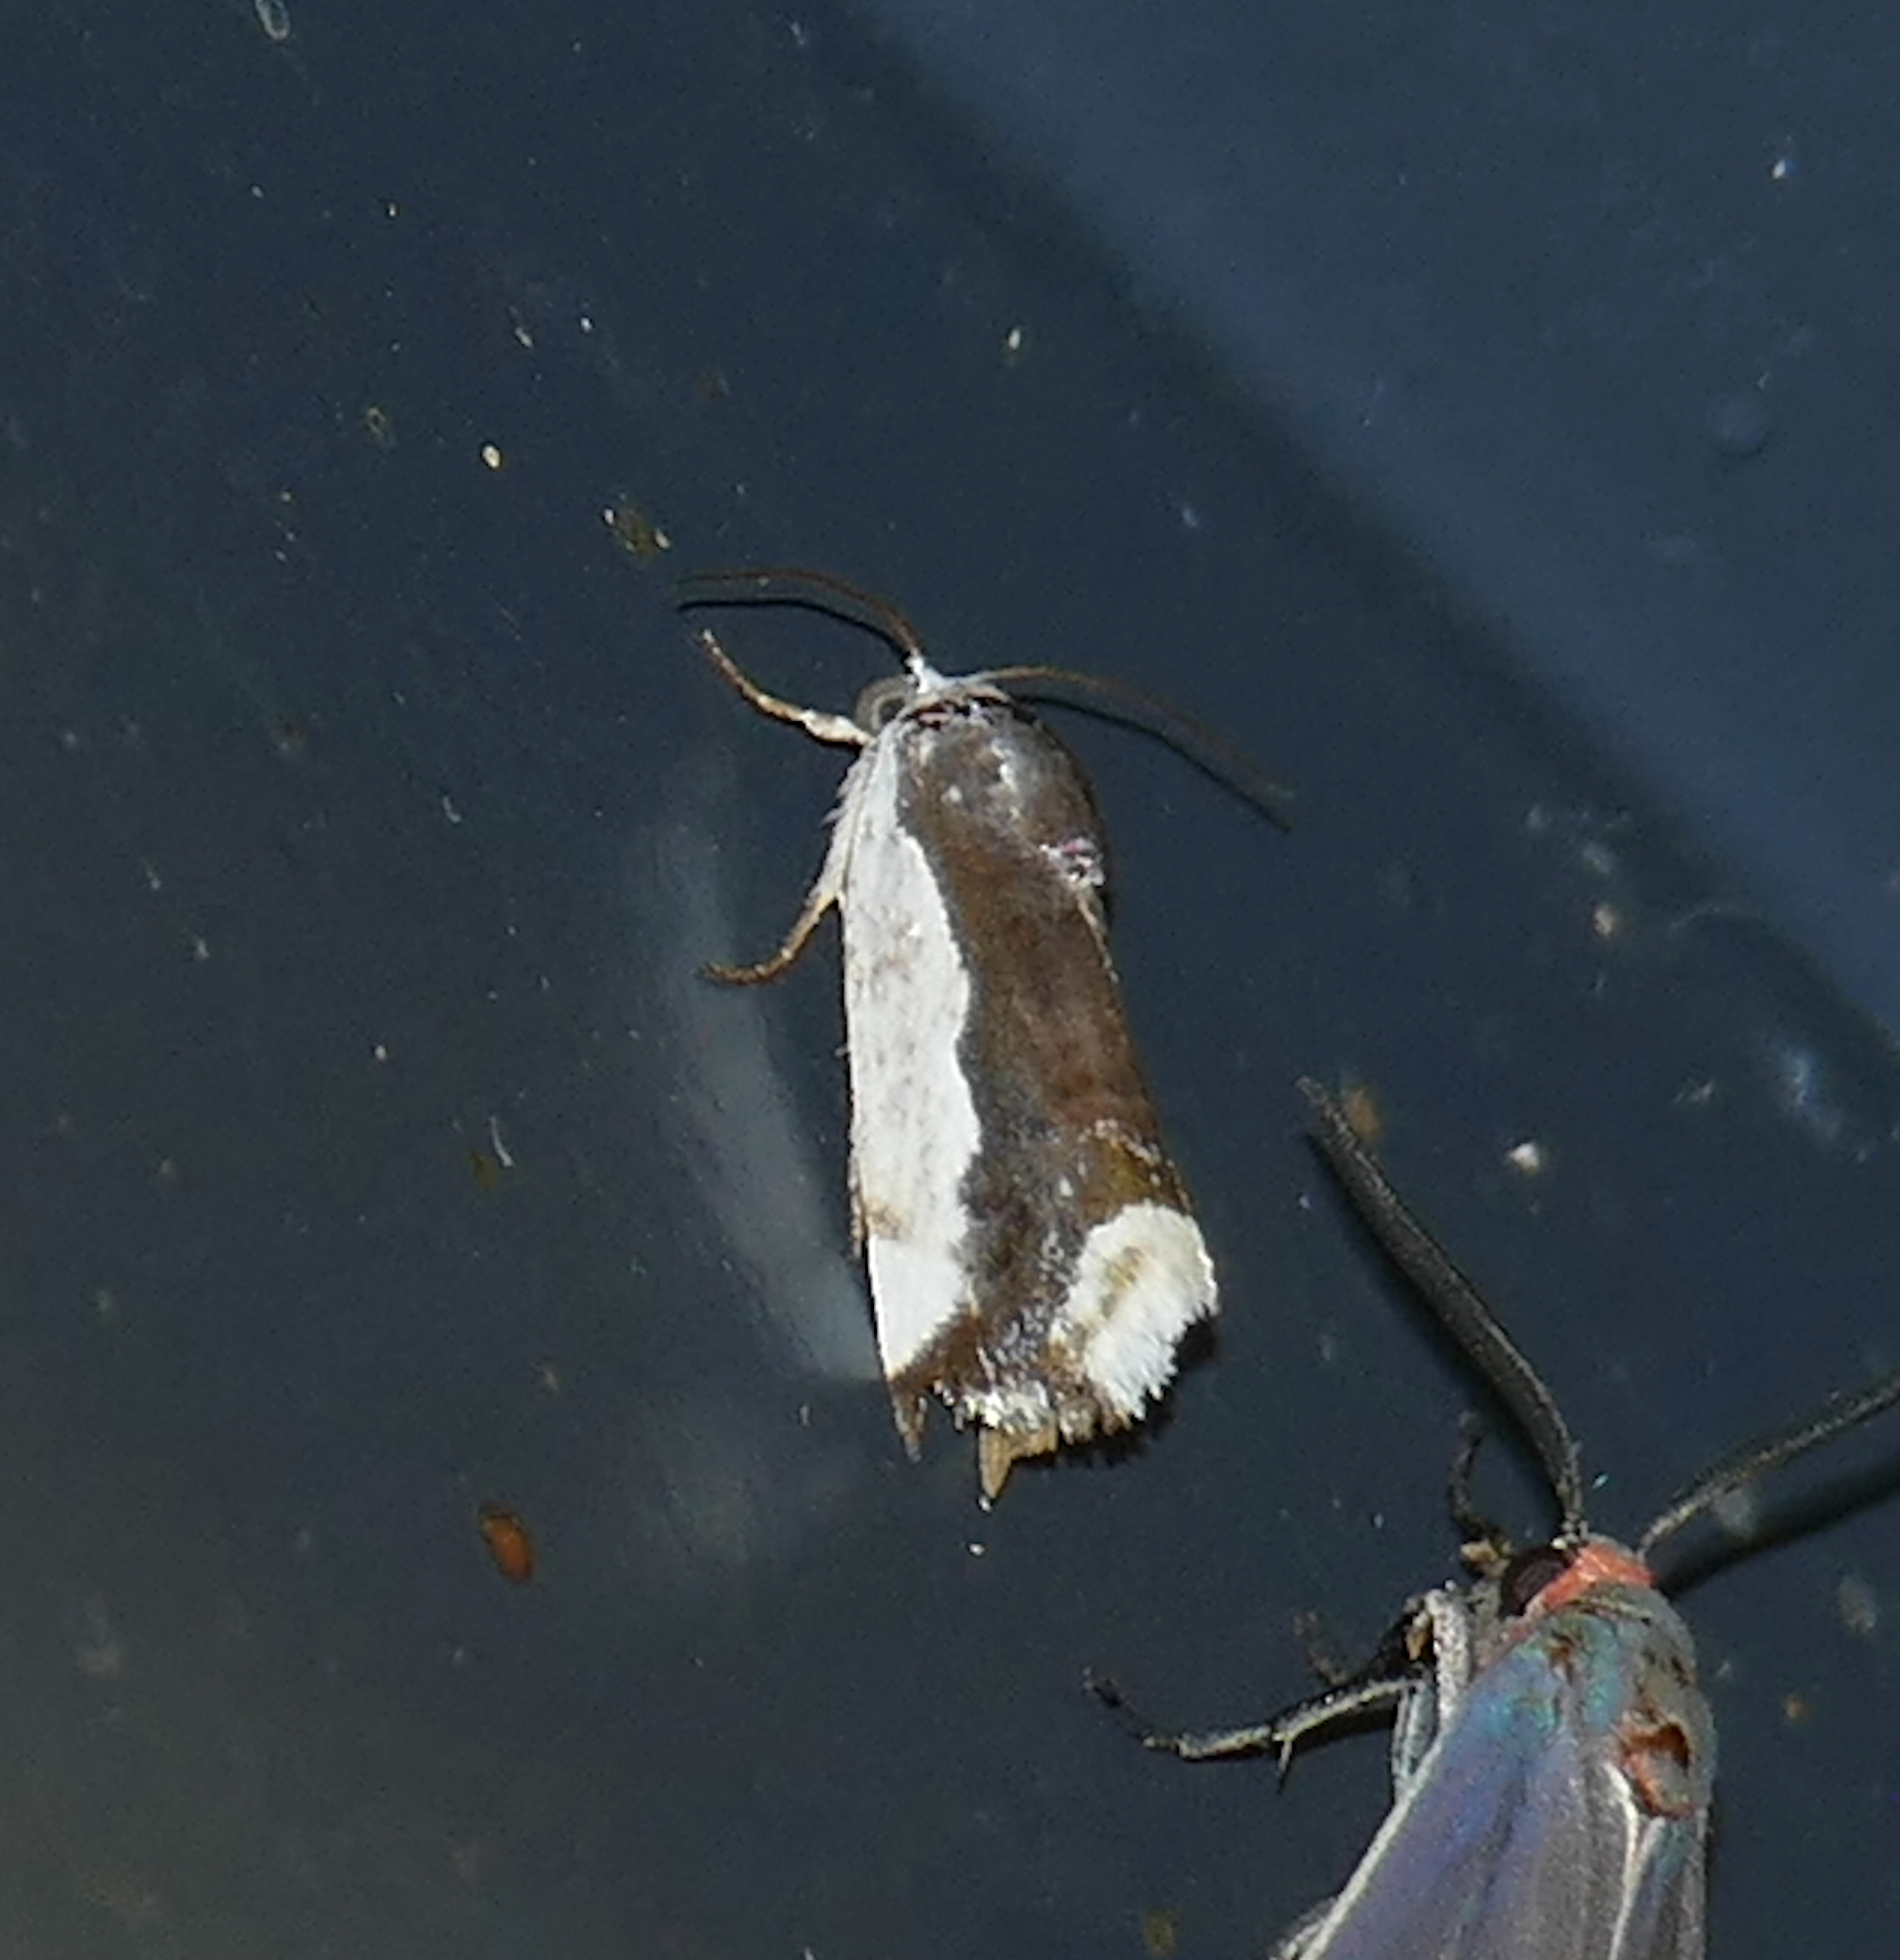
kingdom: Animalia
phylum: Arthropoda
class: Insecta
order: Lepidoptera
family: Noctuidae
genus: Acontia
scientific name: Acontia Tarache expolita
